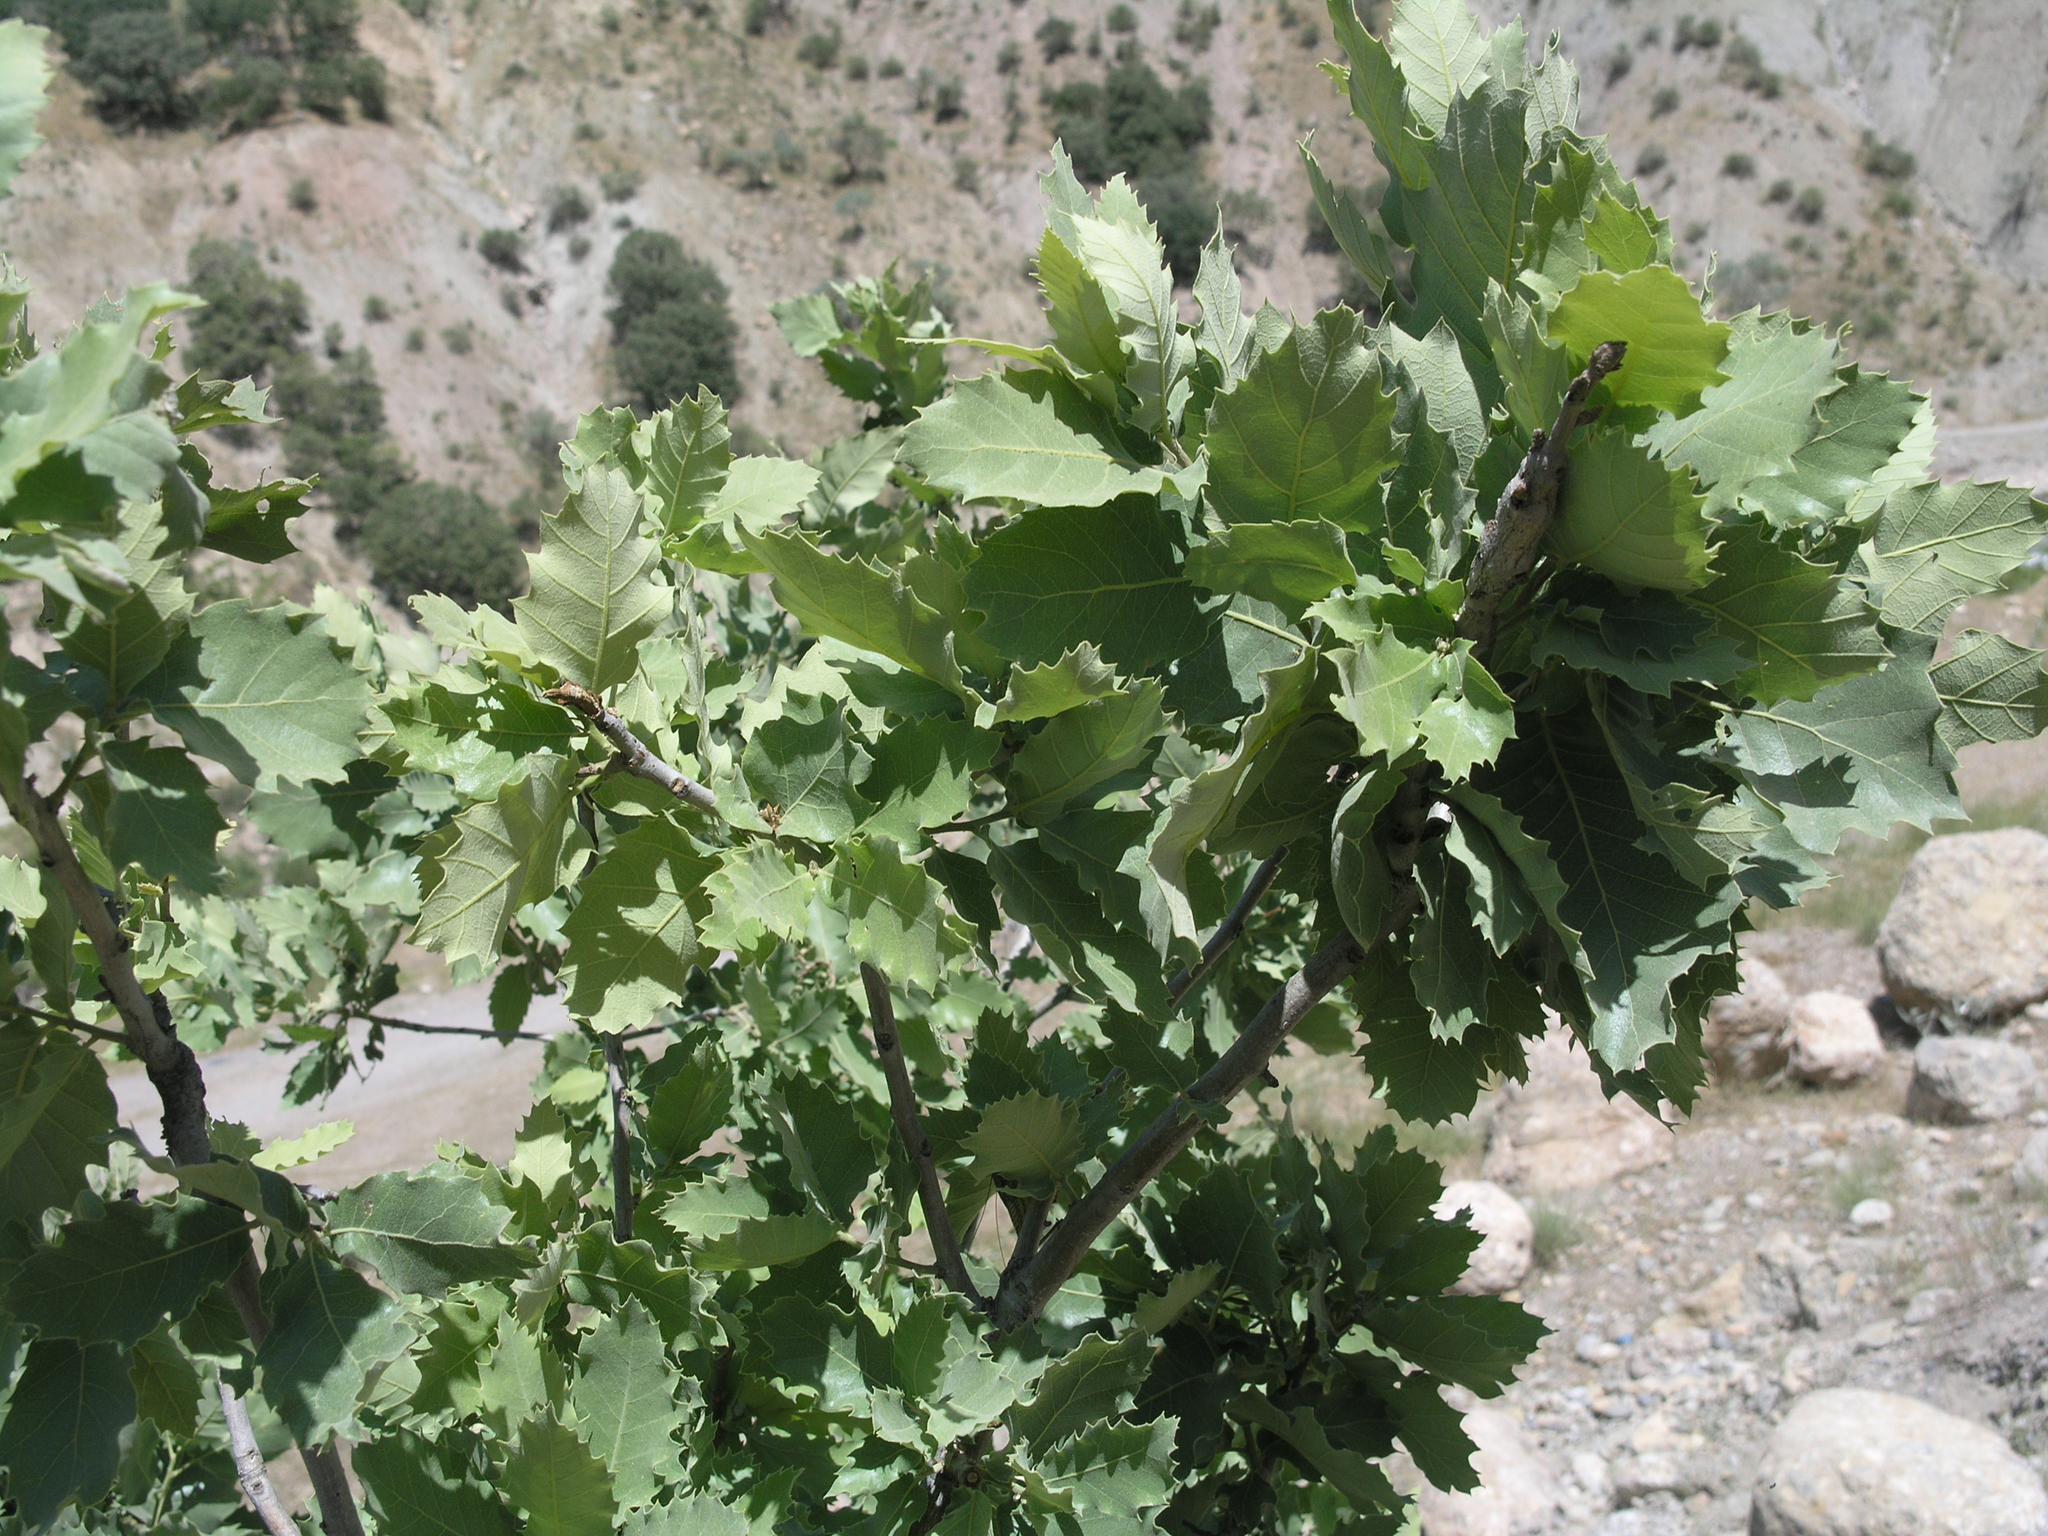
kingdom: Plantae
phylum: Tracheophyta
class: Magnoliopsida
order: Fagales
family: Fagaceae
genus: Quercus
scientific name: Quercus brantii
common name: Brant oak
